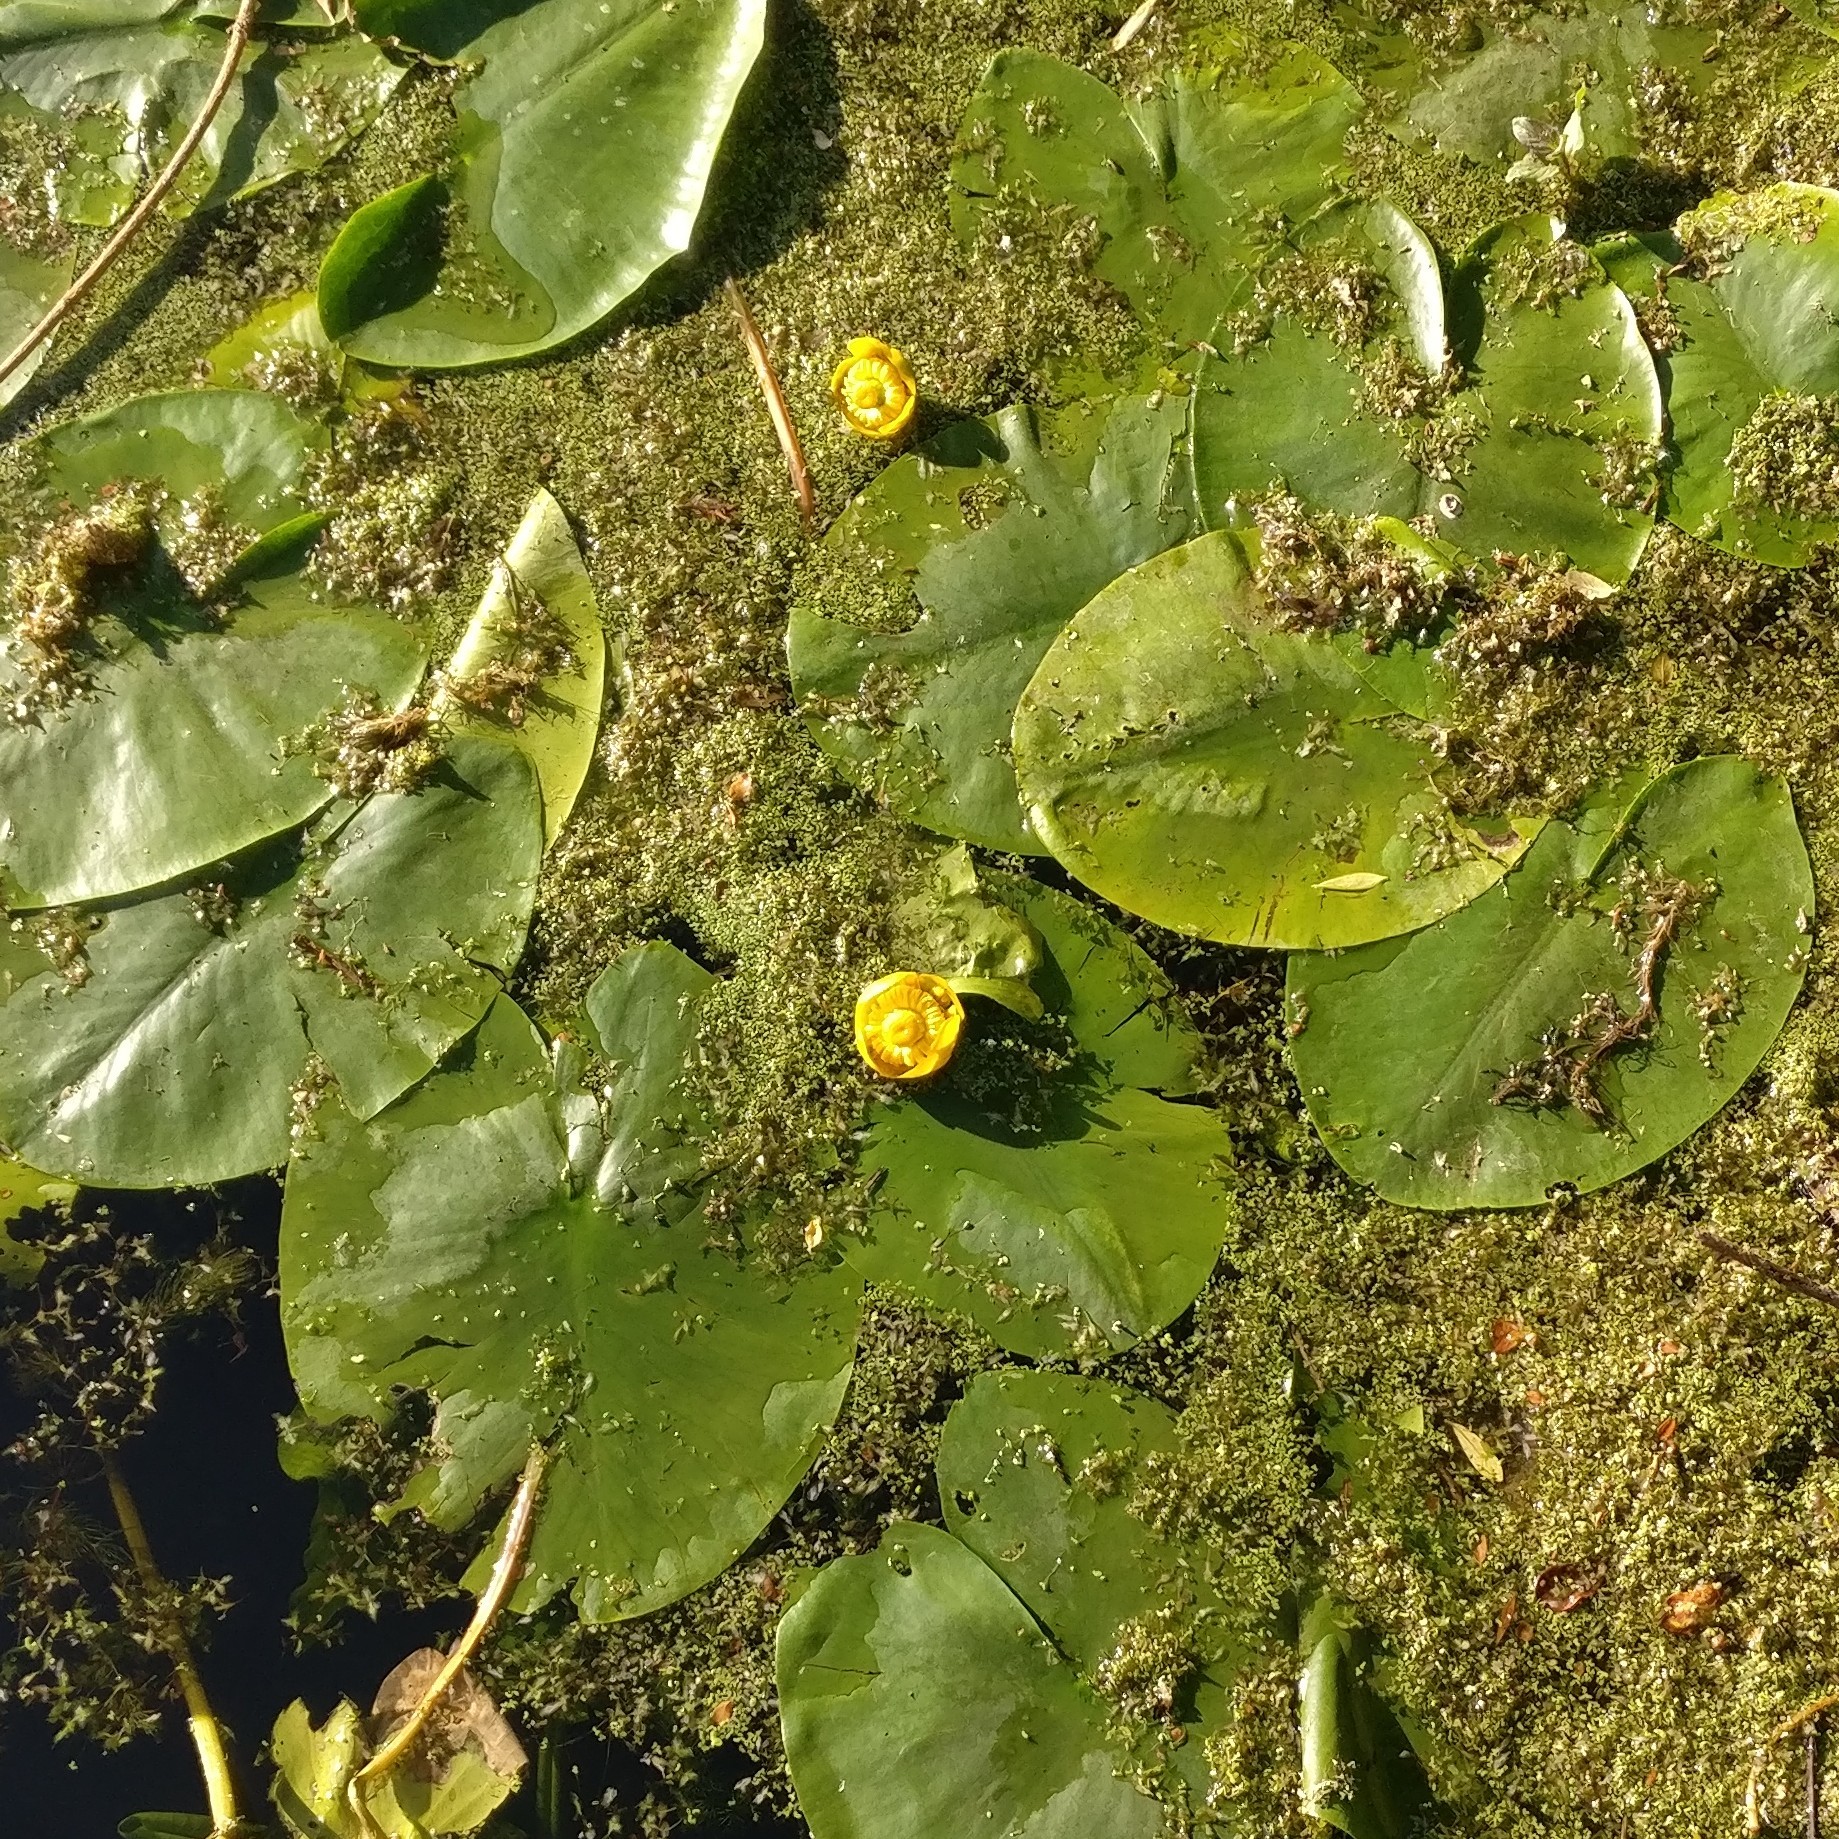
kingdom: Plantae
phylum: Tracheophyta
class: Magnoliopsida
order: Nymphaeales
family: Nymphaeaceae
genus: Nuphar
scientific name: Nuphar lutea
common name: Yellow water-lily
